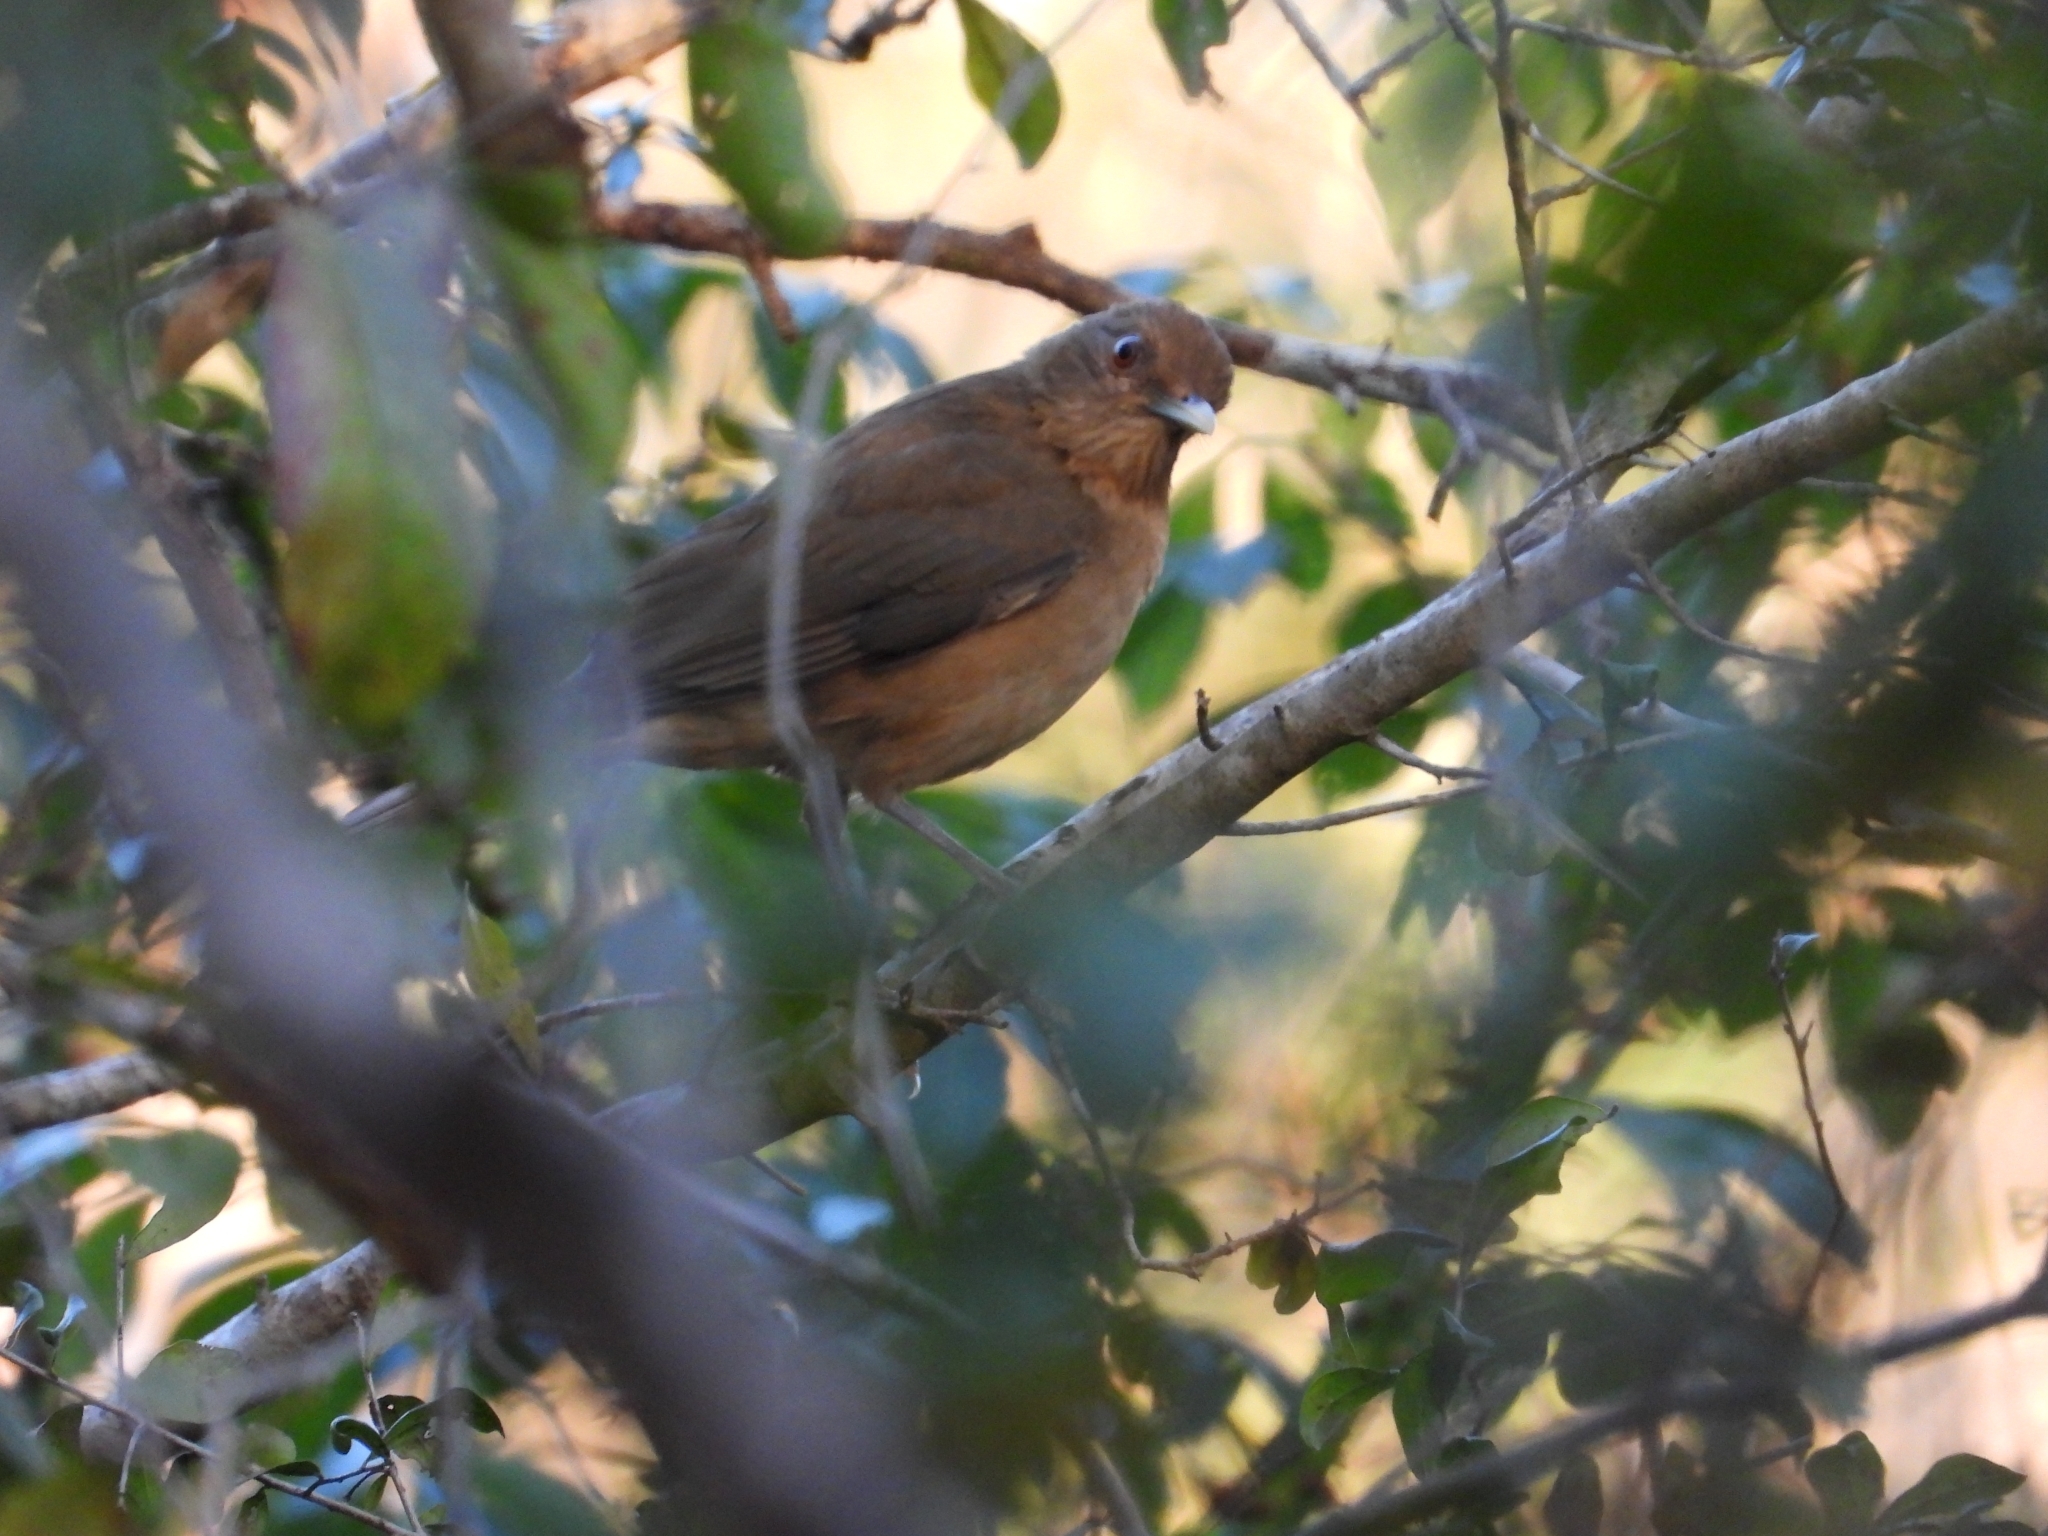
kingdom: Animalia
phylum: Chordata
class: Aves
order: Passeriformes
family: Turdidae
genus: Turdus
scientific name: Turdus grayi
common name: Clay-colored thrush
